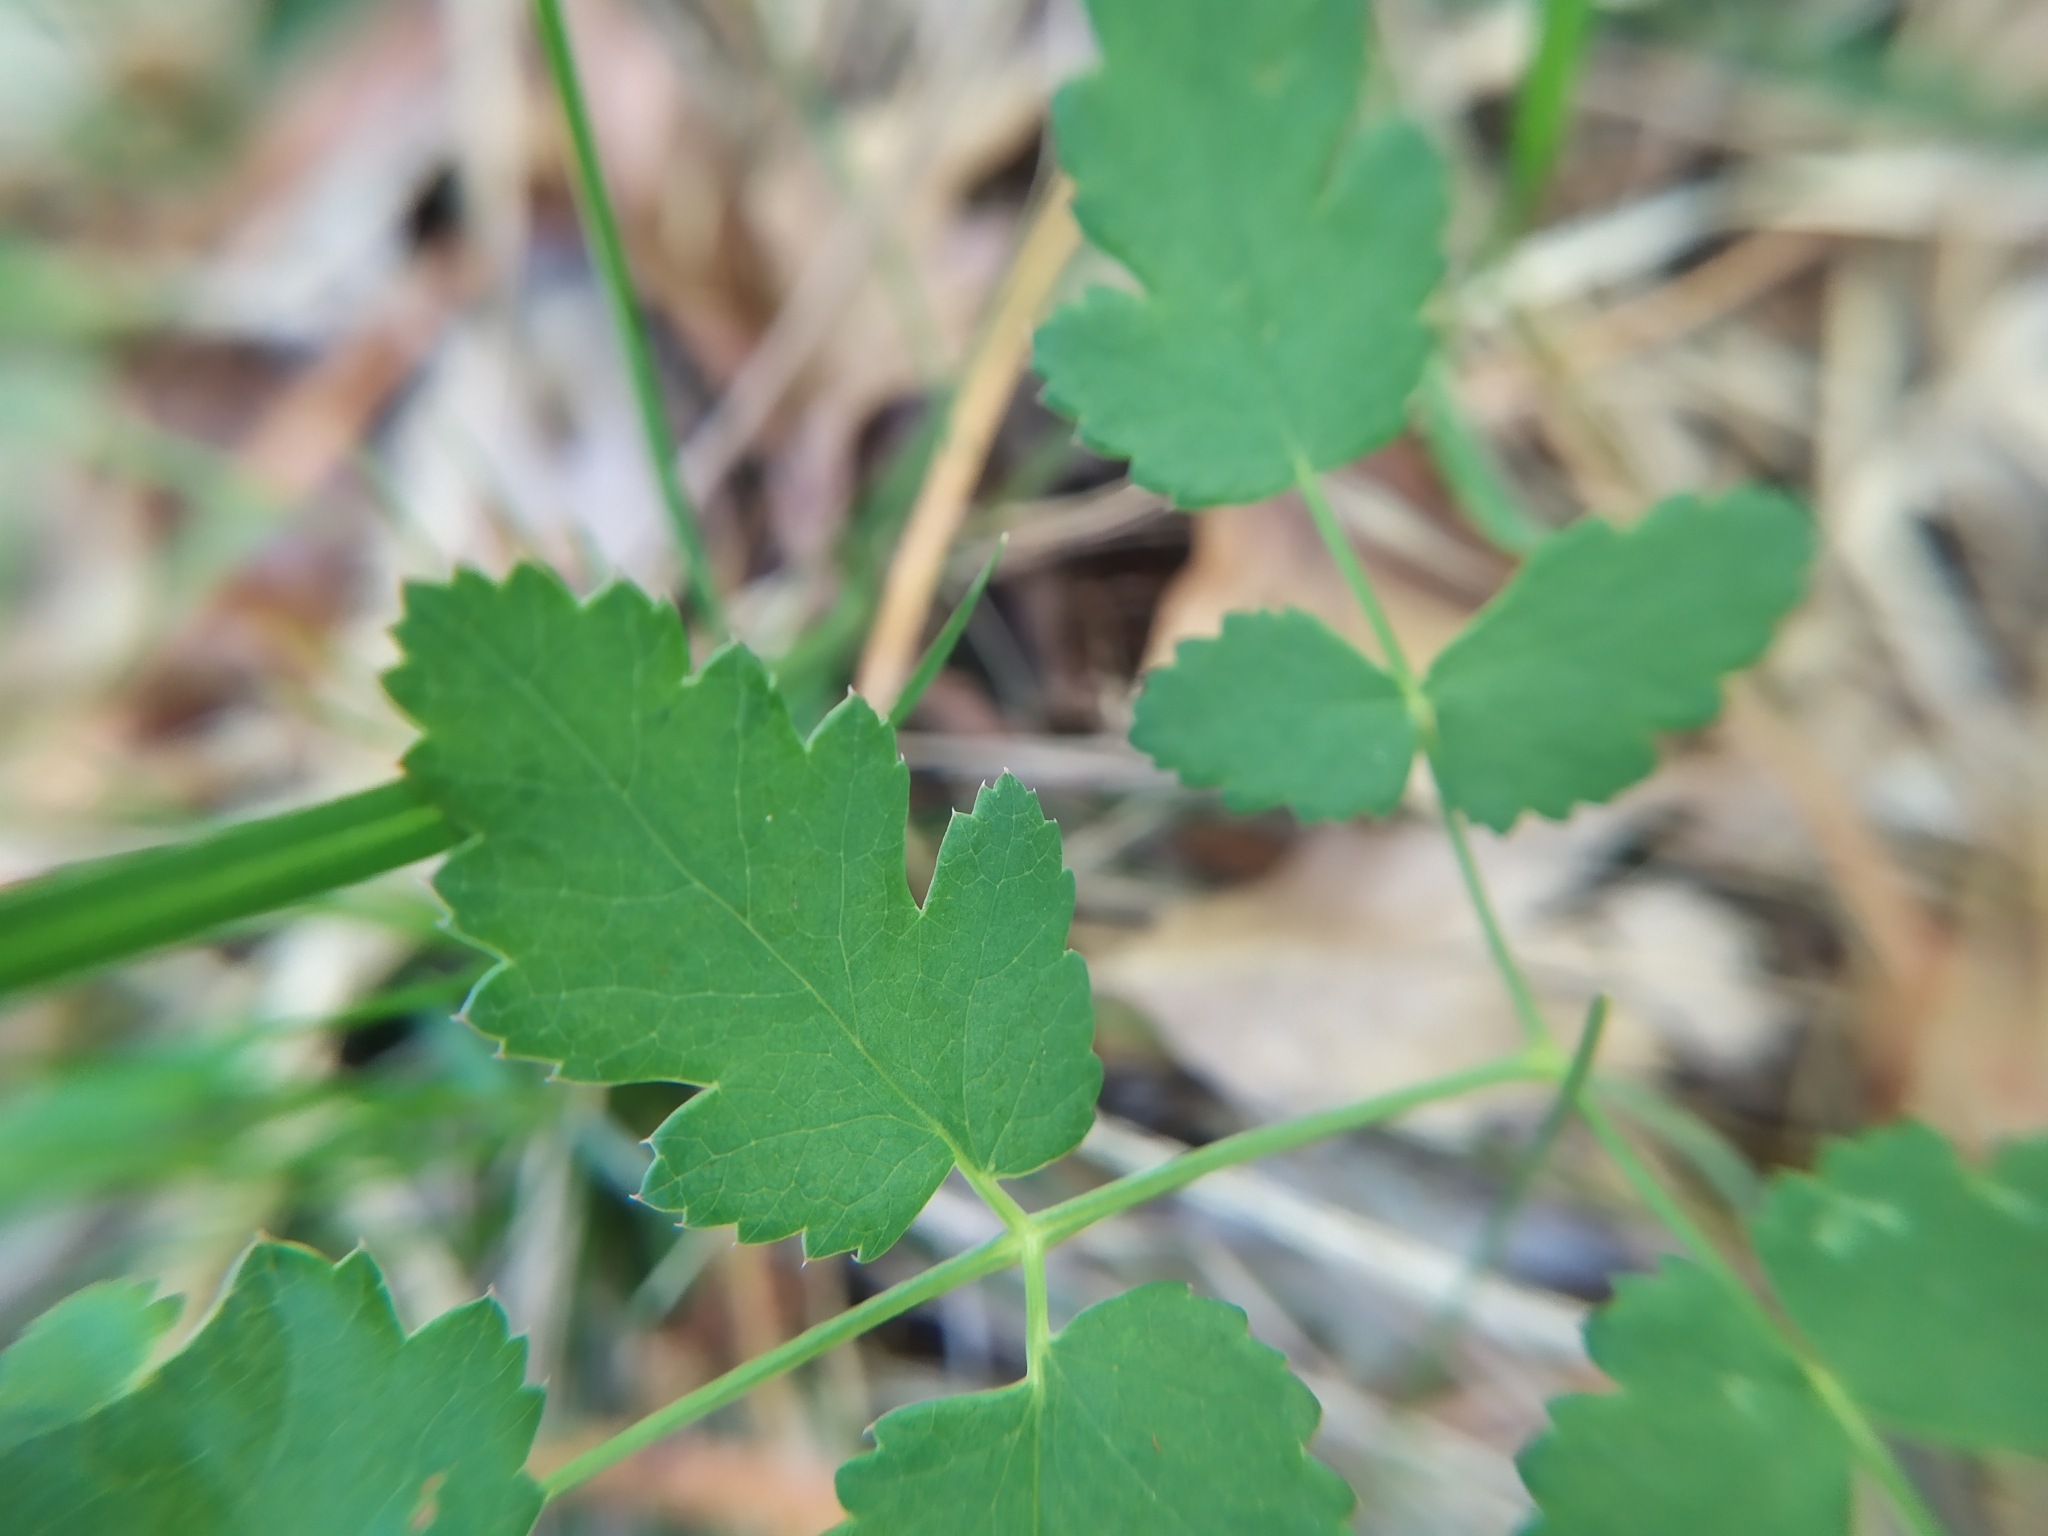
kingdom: Plantae
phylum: Tracheophyta
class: Magnoliopsida
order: Apiales
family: Apiaceae
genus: Cervaria
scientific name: Cervaria rivini
